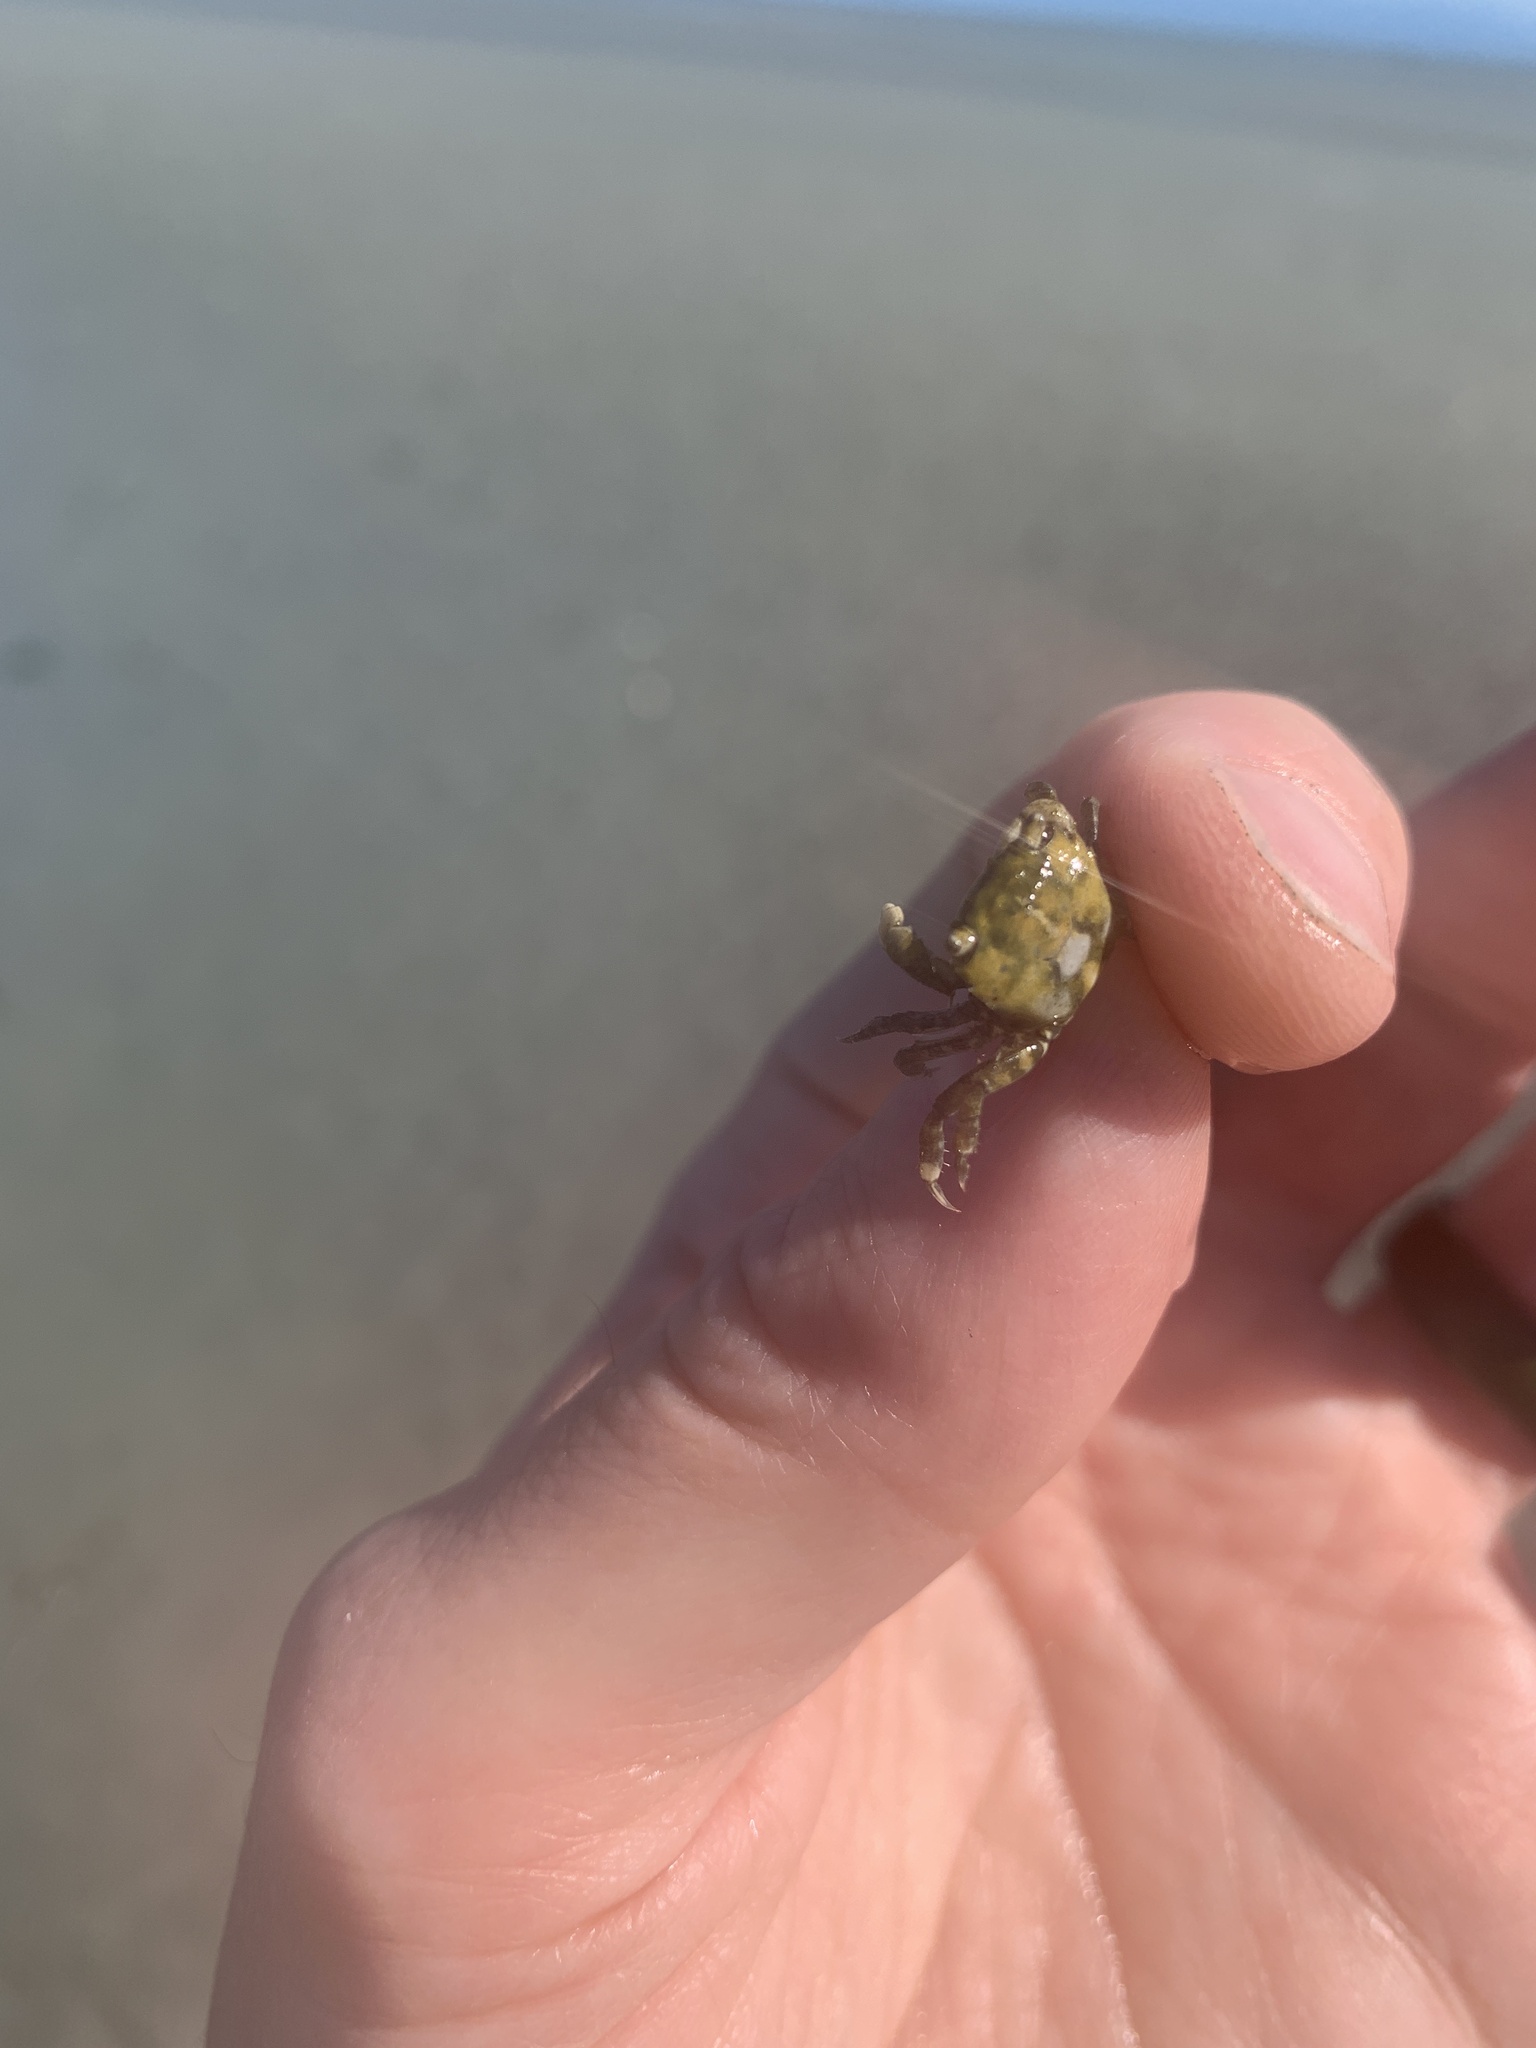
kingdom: Animalia
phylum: Arthropoda
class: Malacostraca
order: Decapoda
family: Varunidae
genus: Hemigrapsus
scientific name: Hemigrapsus oregonensis
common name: Yellow shore crab
